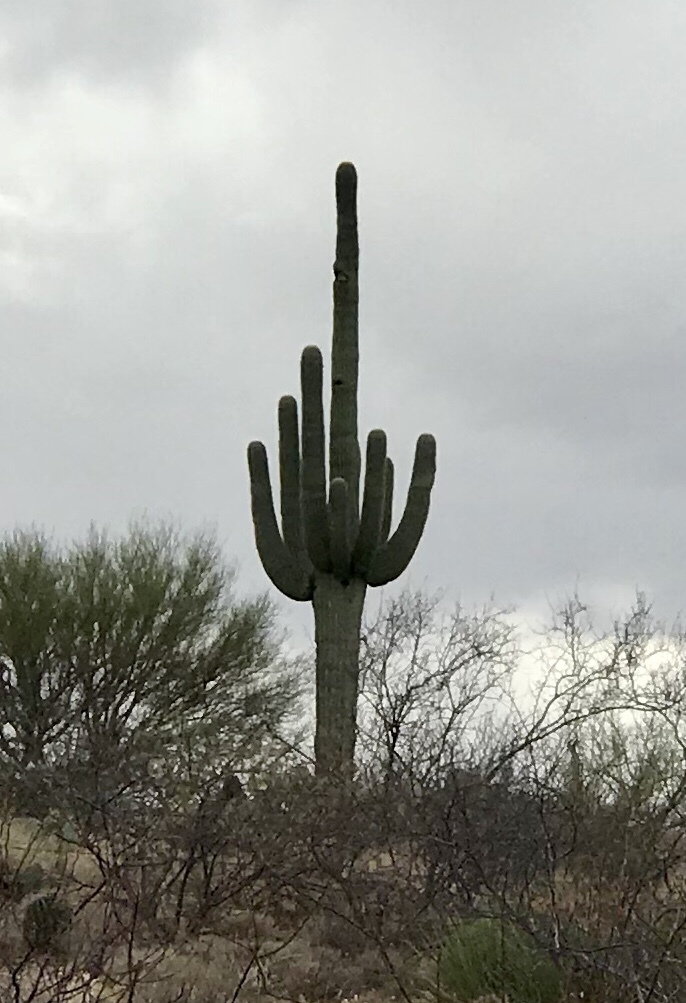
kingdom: Plantae
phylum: Tracheophyta
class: Magnoliopsida
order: Caryophyllales
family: Cactaceae
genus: Carnegiea
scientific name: Carnegiea gigantea
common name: Saguaro
